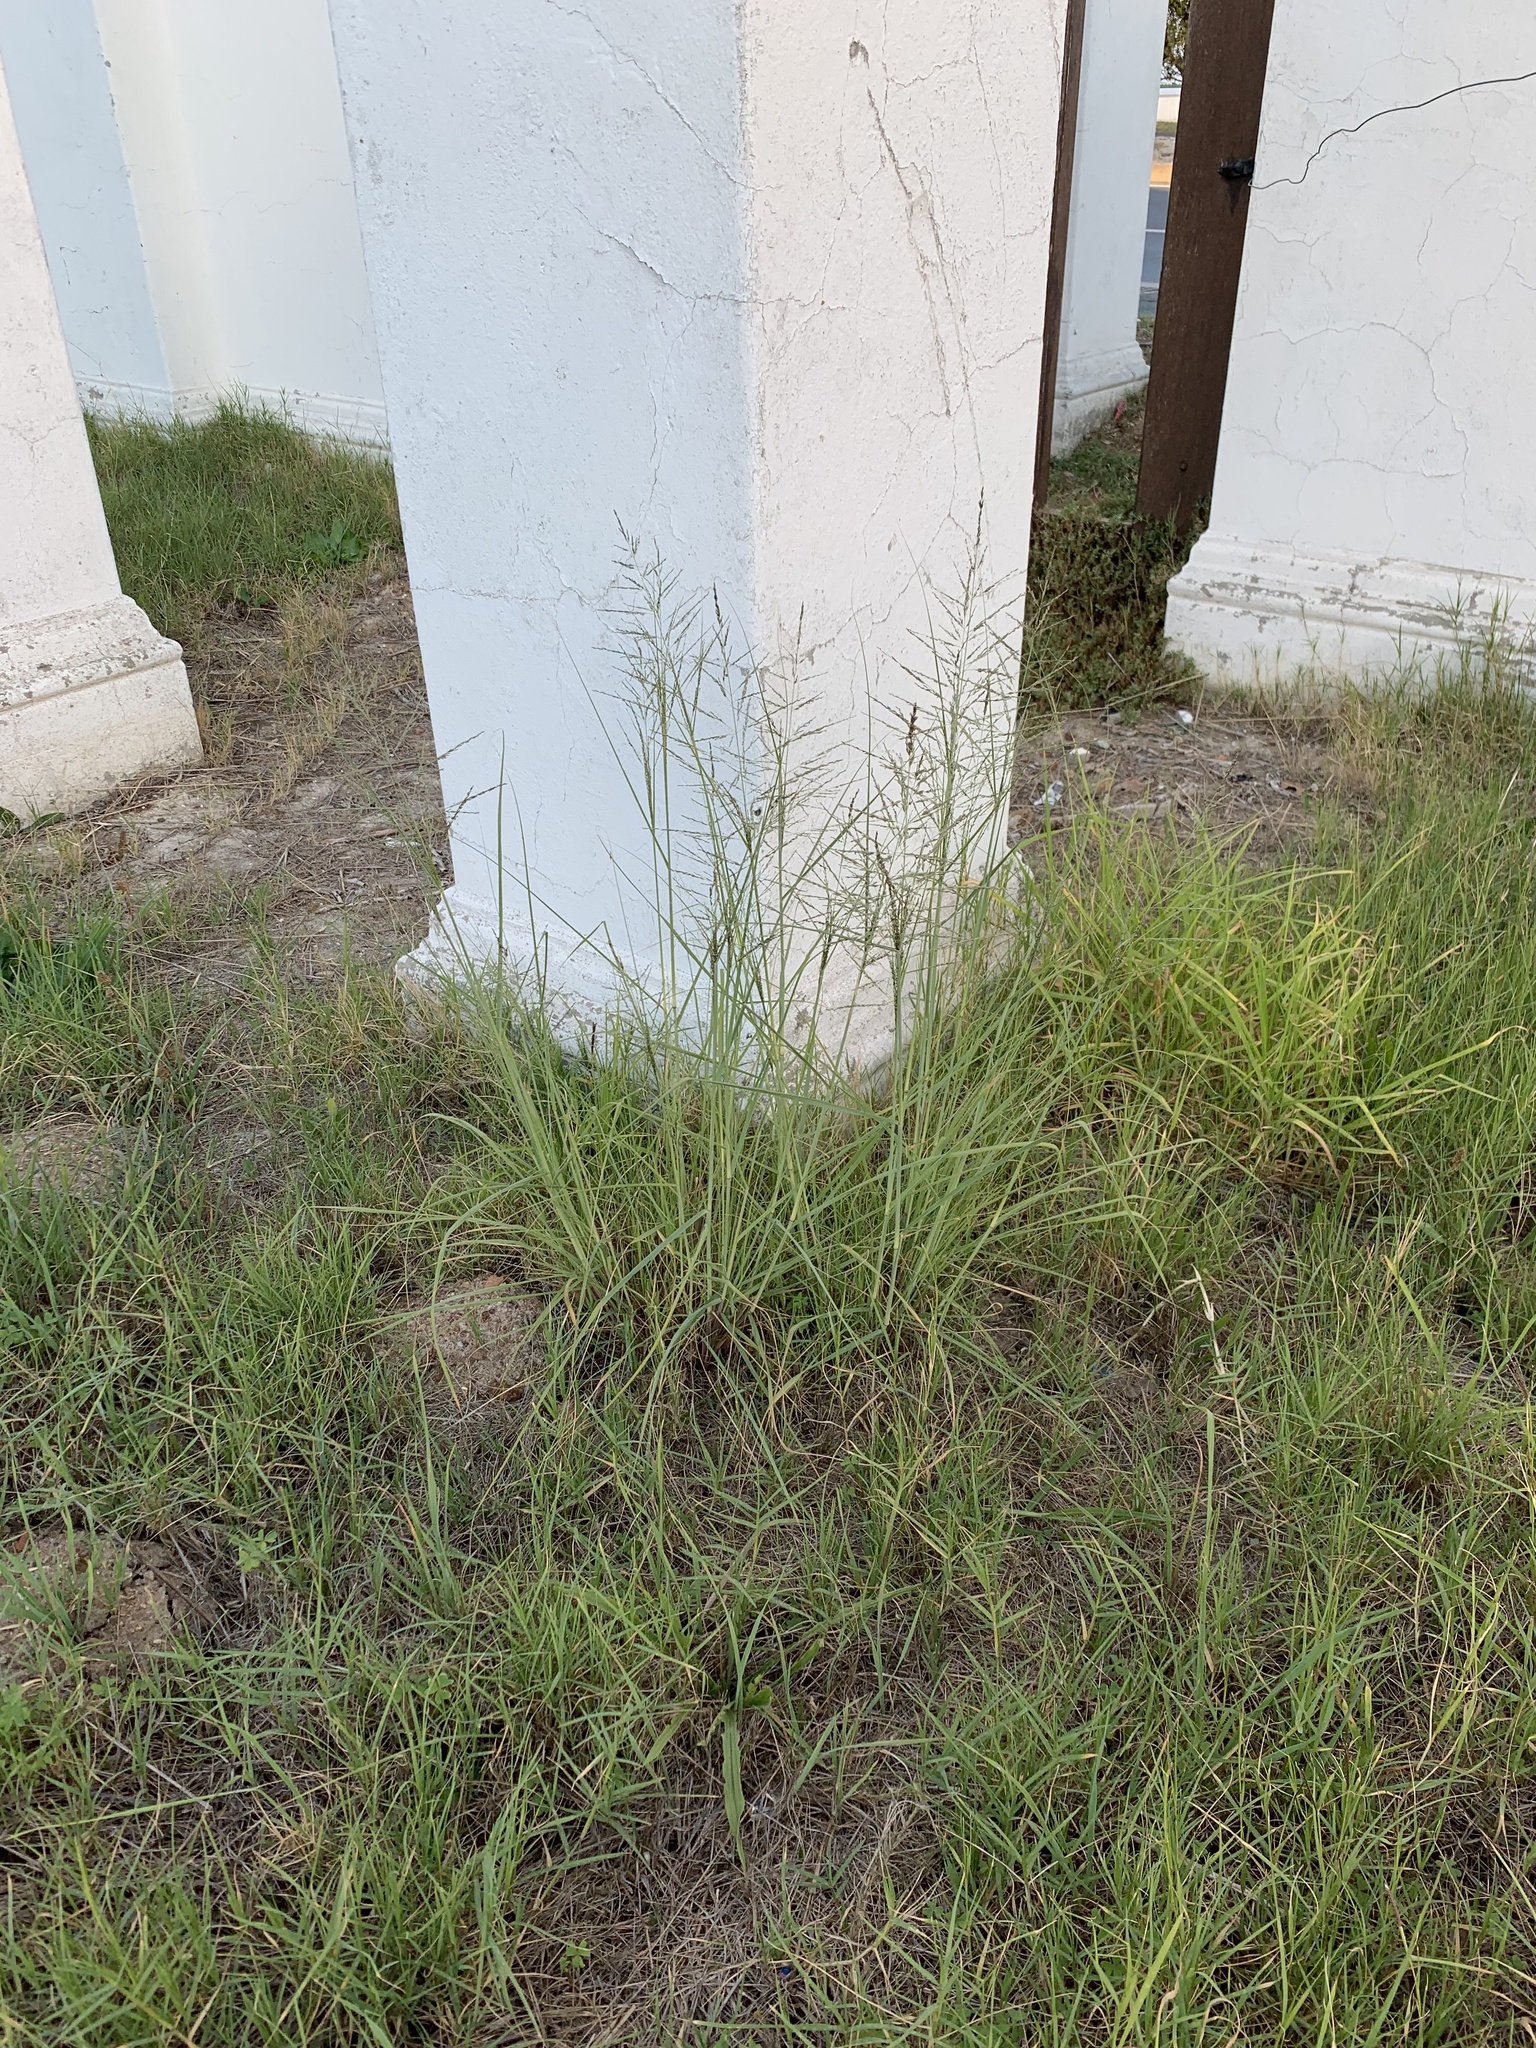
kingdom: Plantae
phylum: Tracheophyta
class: Liliopsida
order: Poales
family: Poaceae
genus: Eragrostis
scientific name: Eragrostis curvula
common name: African love-grass
